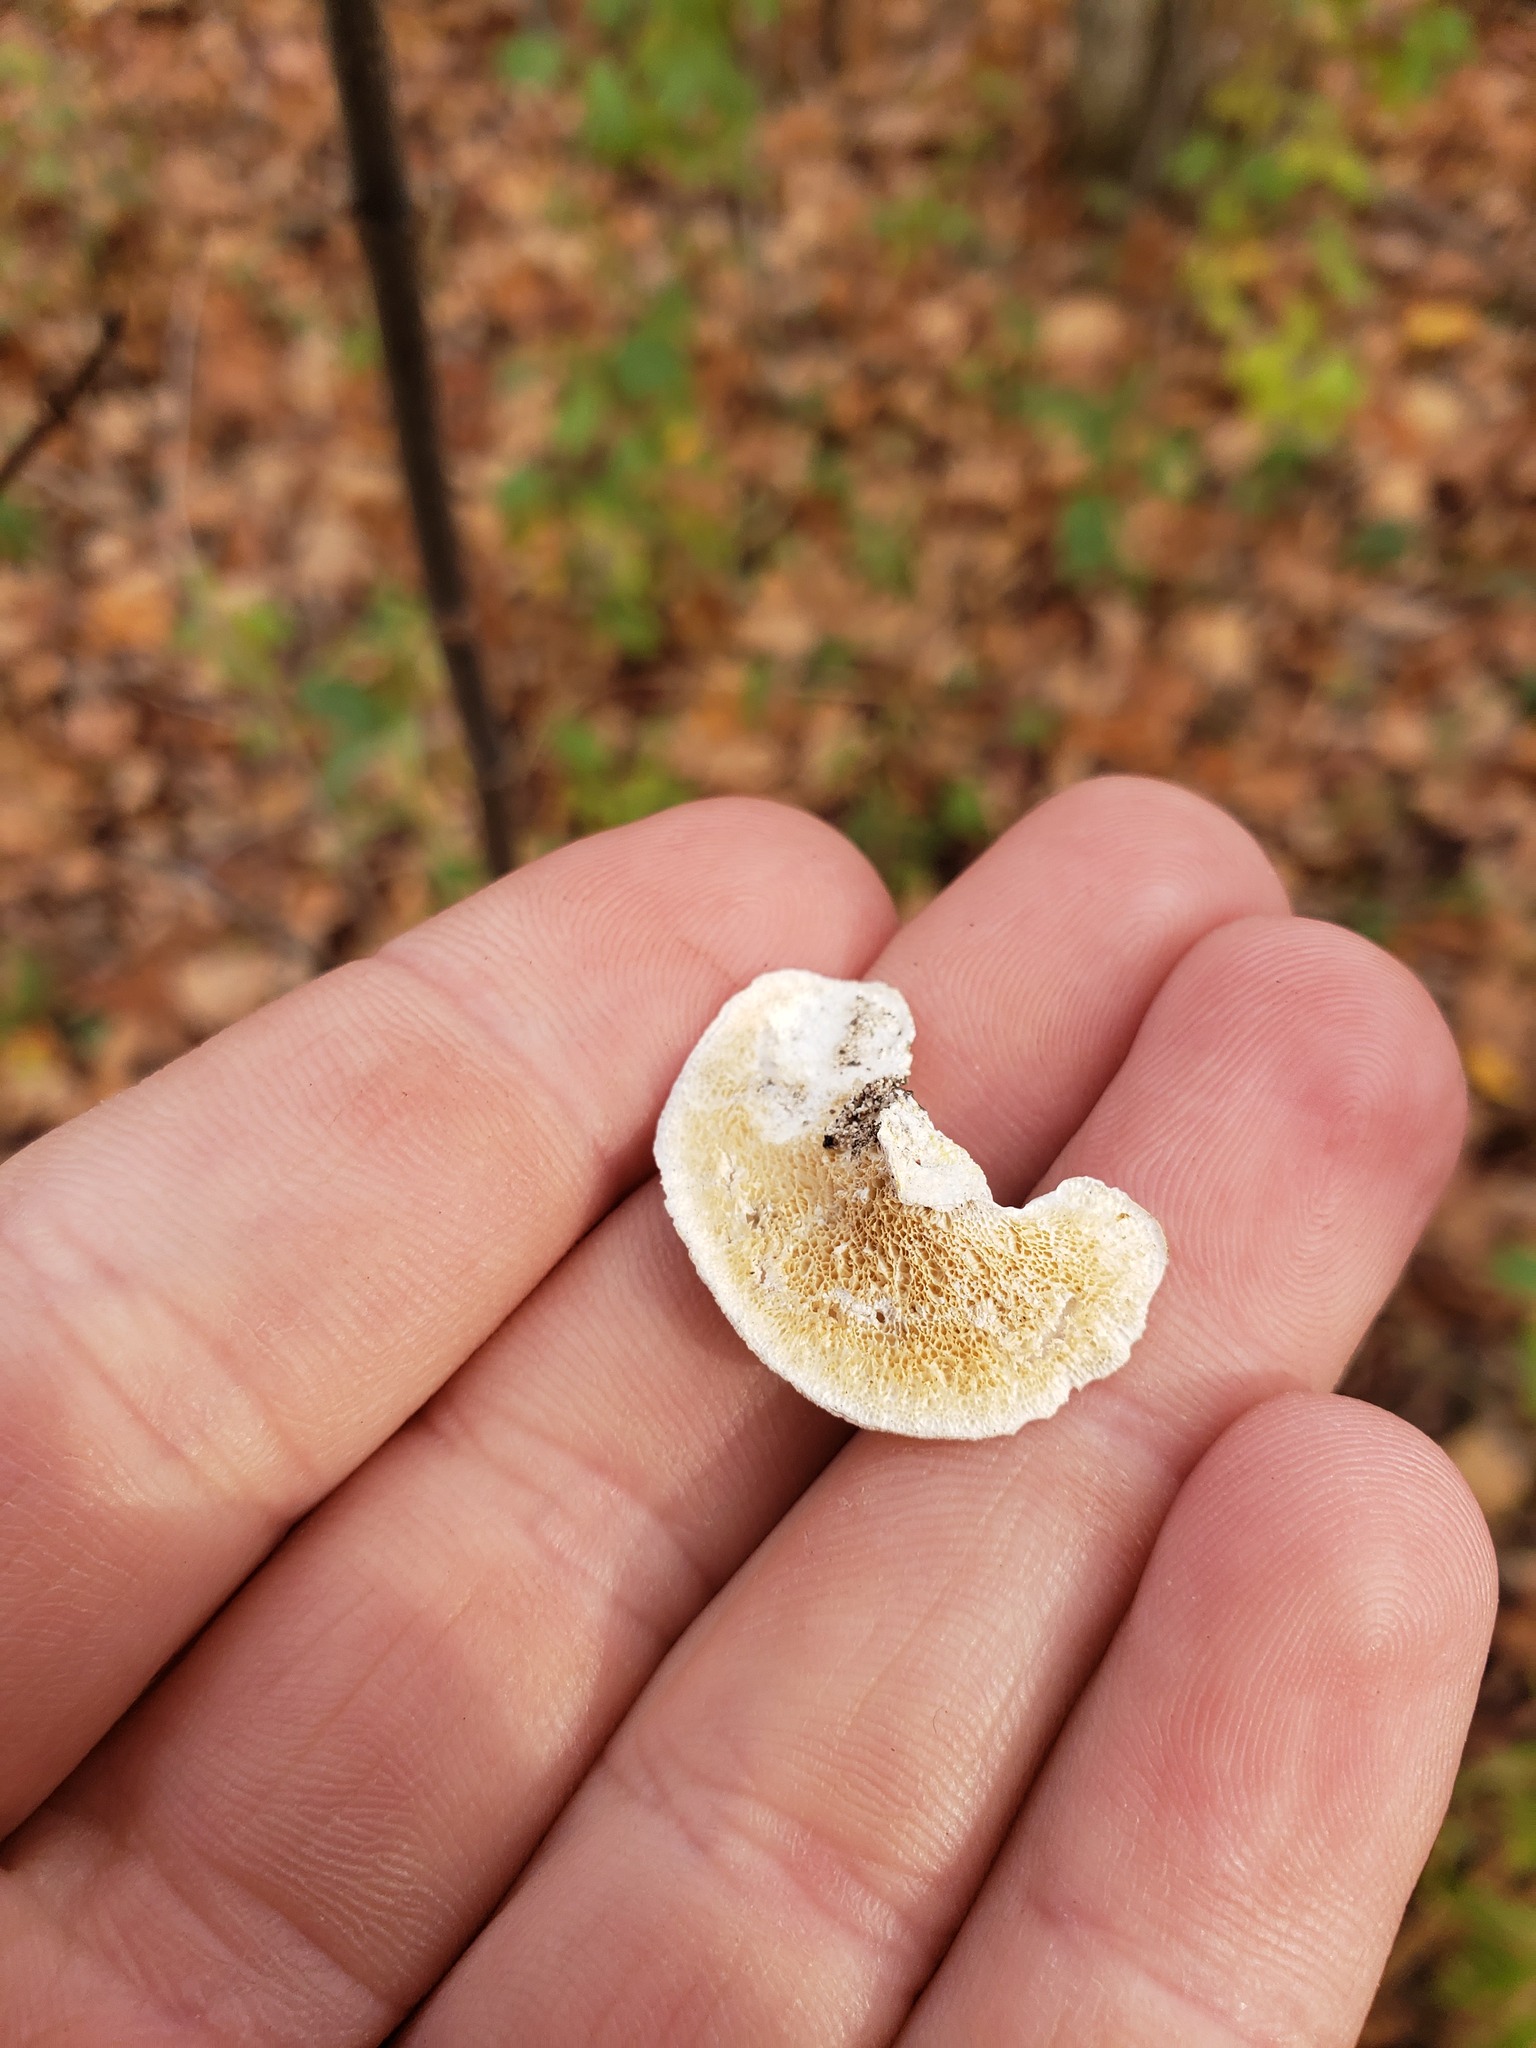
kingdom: Fungi
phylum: Basidiomycota
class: Agaricomycetes
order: Polyporales
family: Polyporaceae
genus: Poronidulus
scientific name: Poronidulus conchifer
